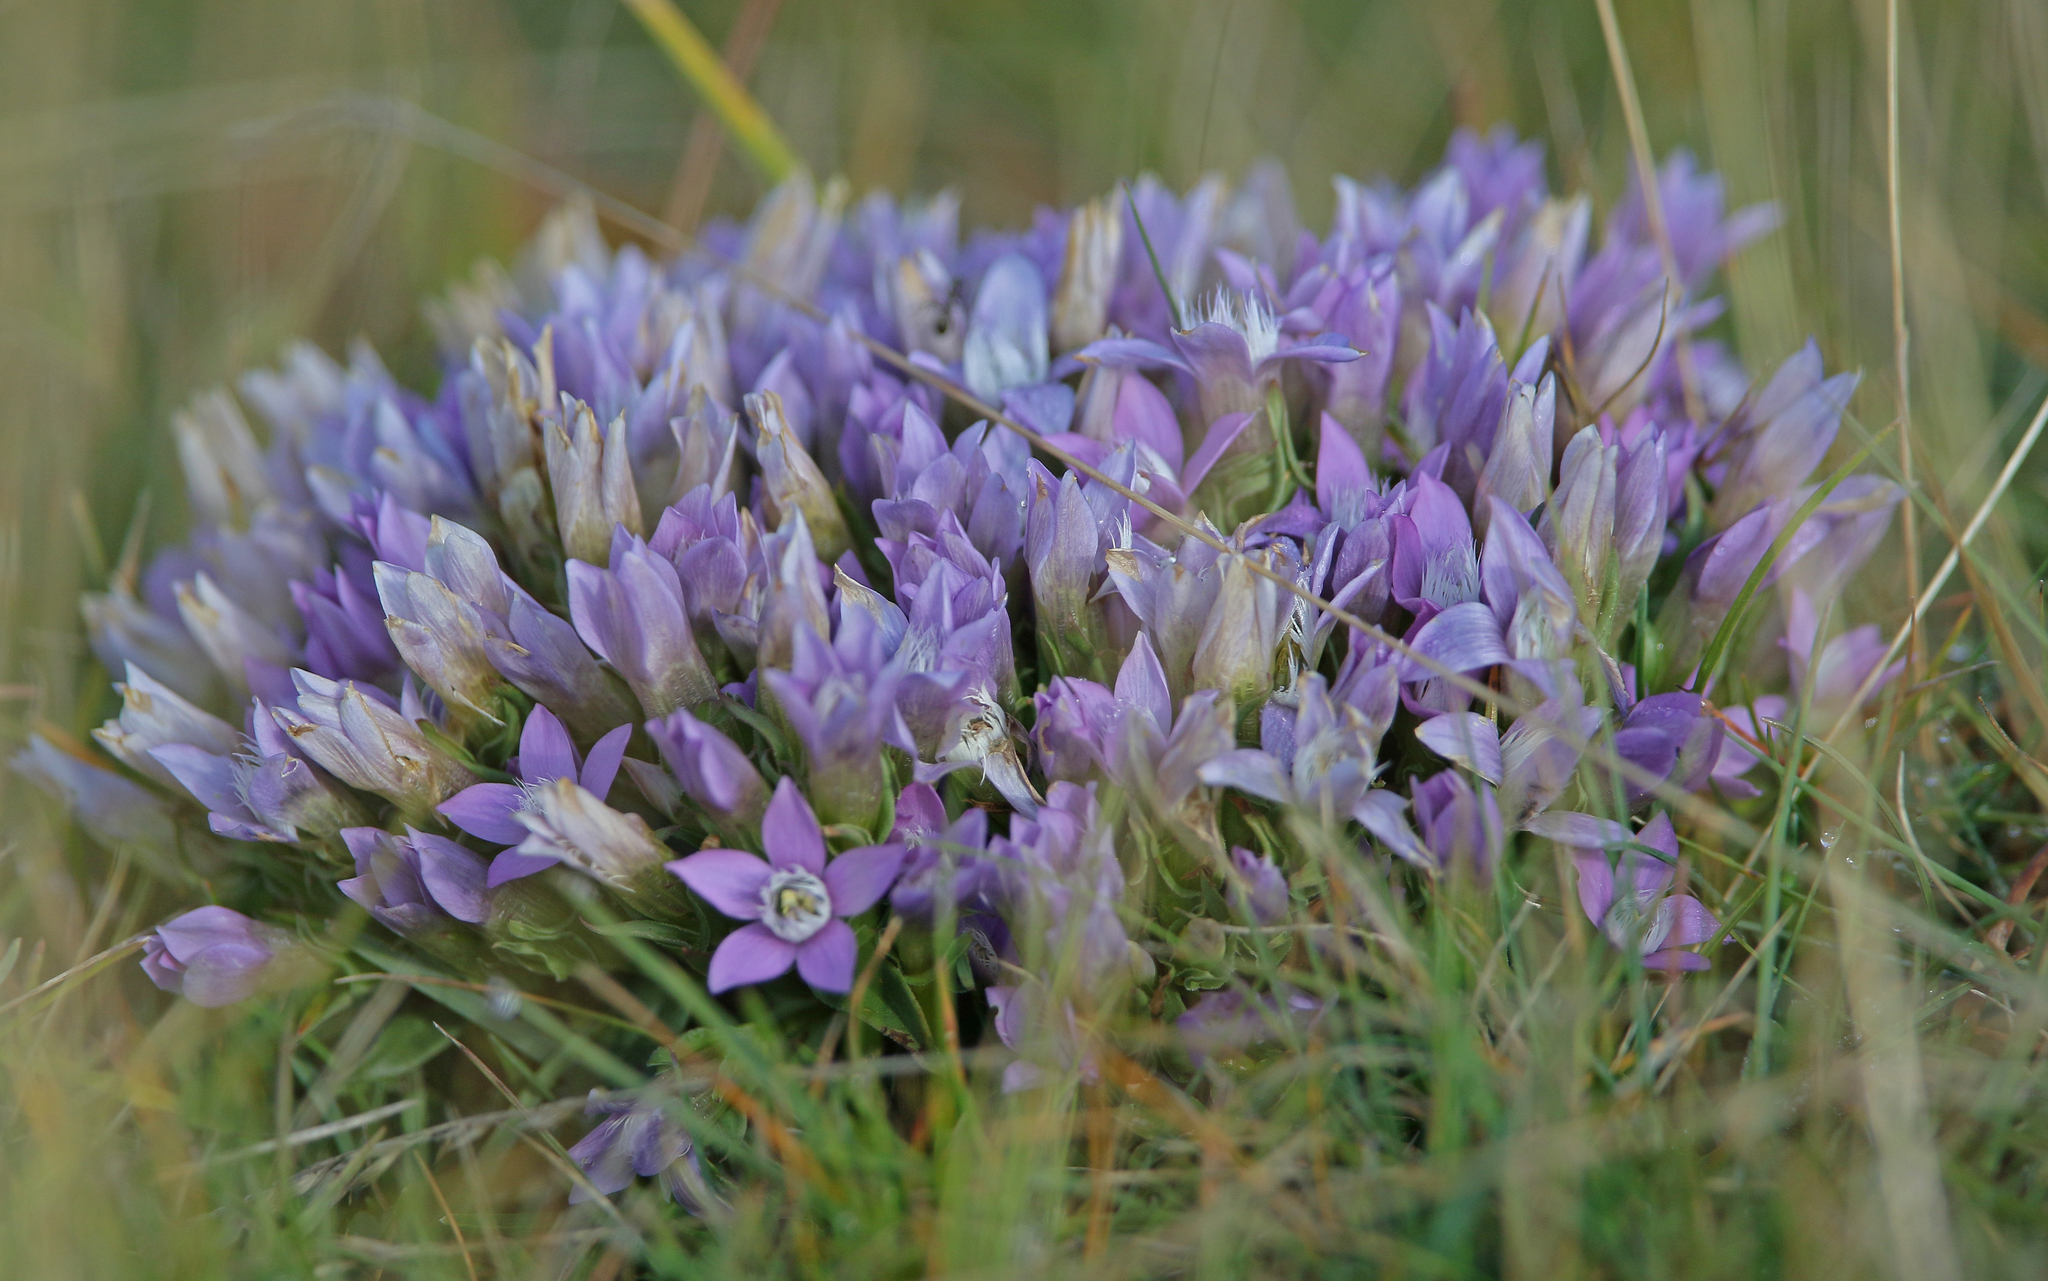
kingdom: Plantae
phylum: Tracheophyta
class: Magnoliopsida
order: Gentianales
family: Gentianaceae
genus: Gentianella
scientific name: Gentianella anisodonta
